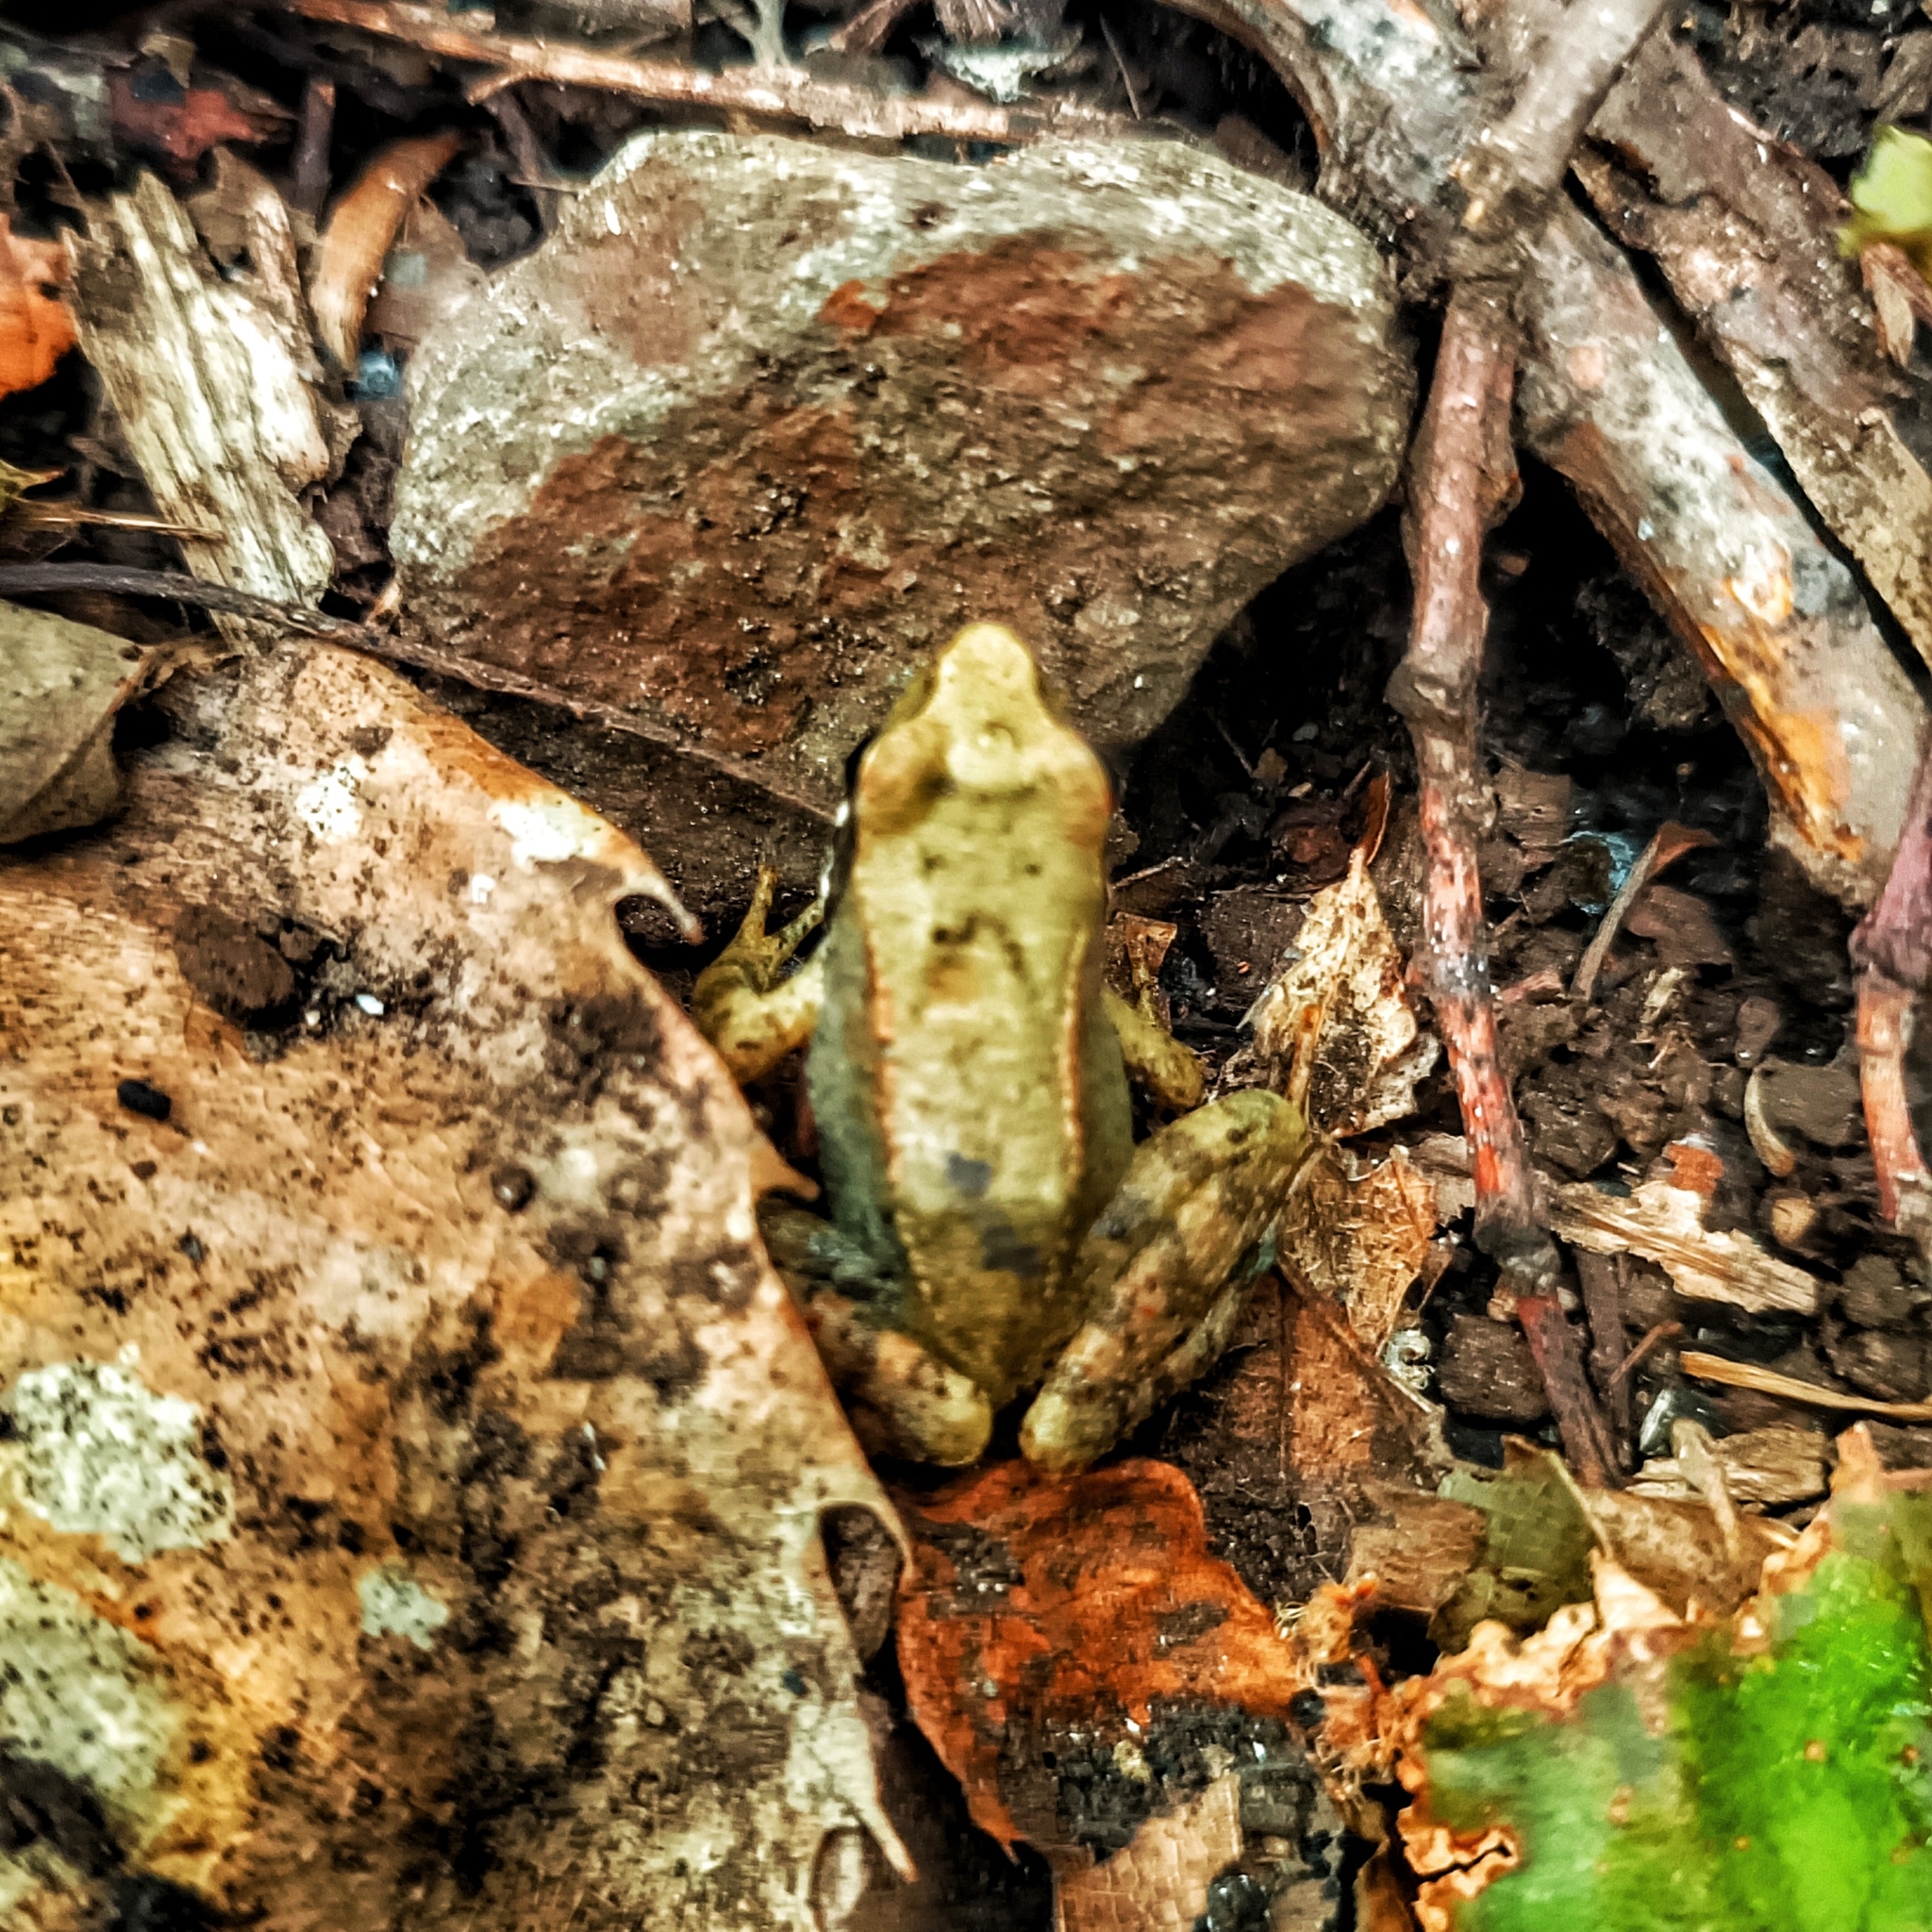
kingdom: Animalia
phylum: Chordata
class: Amphibia
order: Anura
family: Ranidae
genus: Rana
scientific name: Rana italica
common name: Italian stream frog
